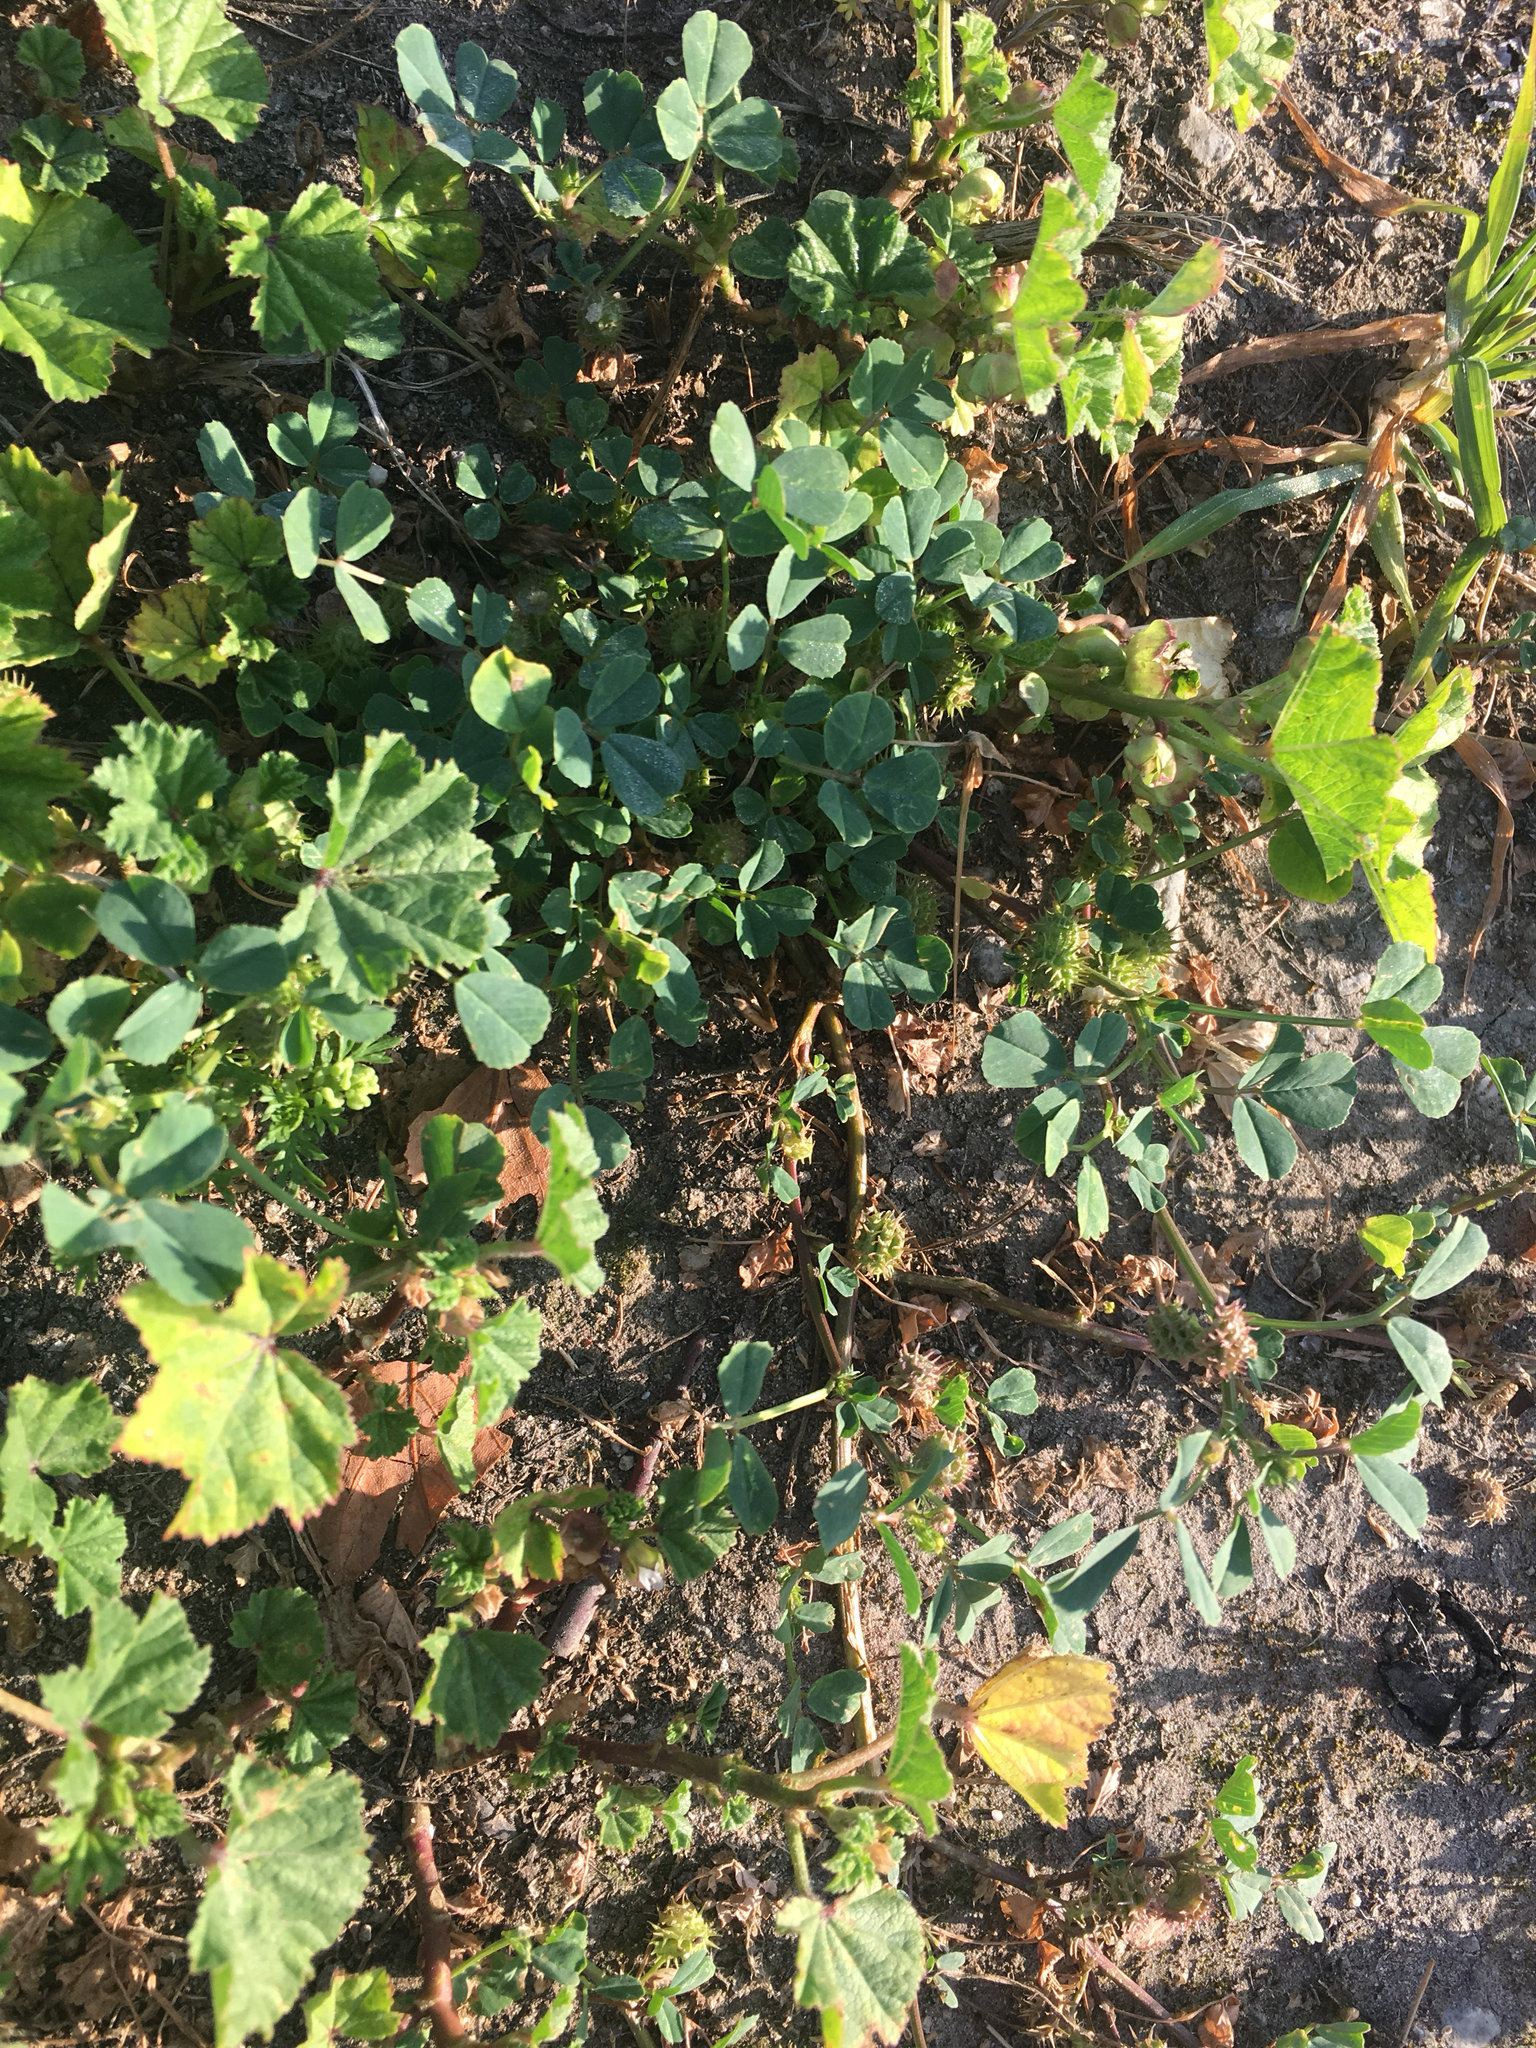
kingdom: Plantae
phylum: Tracheophyta
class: Magnoliopsida
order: Fabales
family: Fabaceae
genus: Medicago
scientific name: Medicago polymorpha
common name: Burclover
